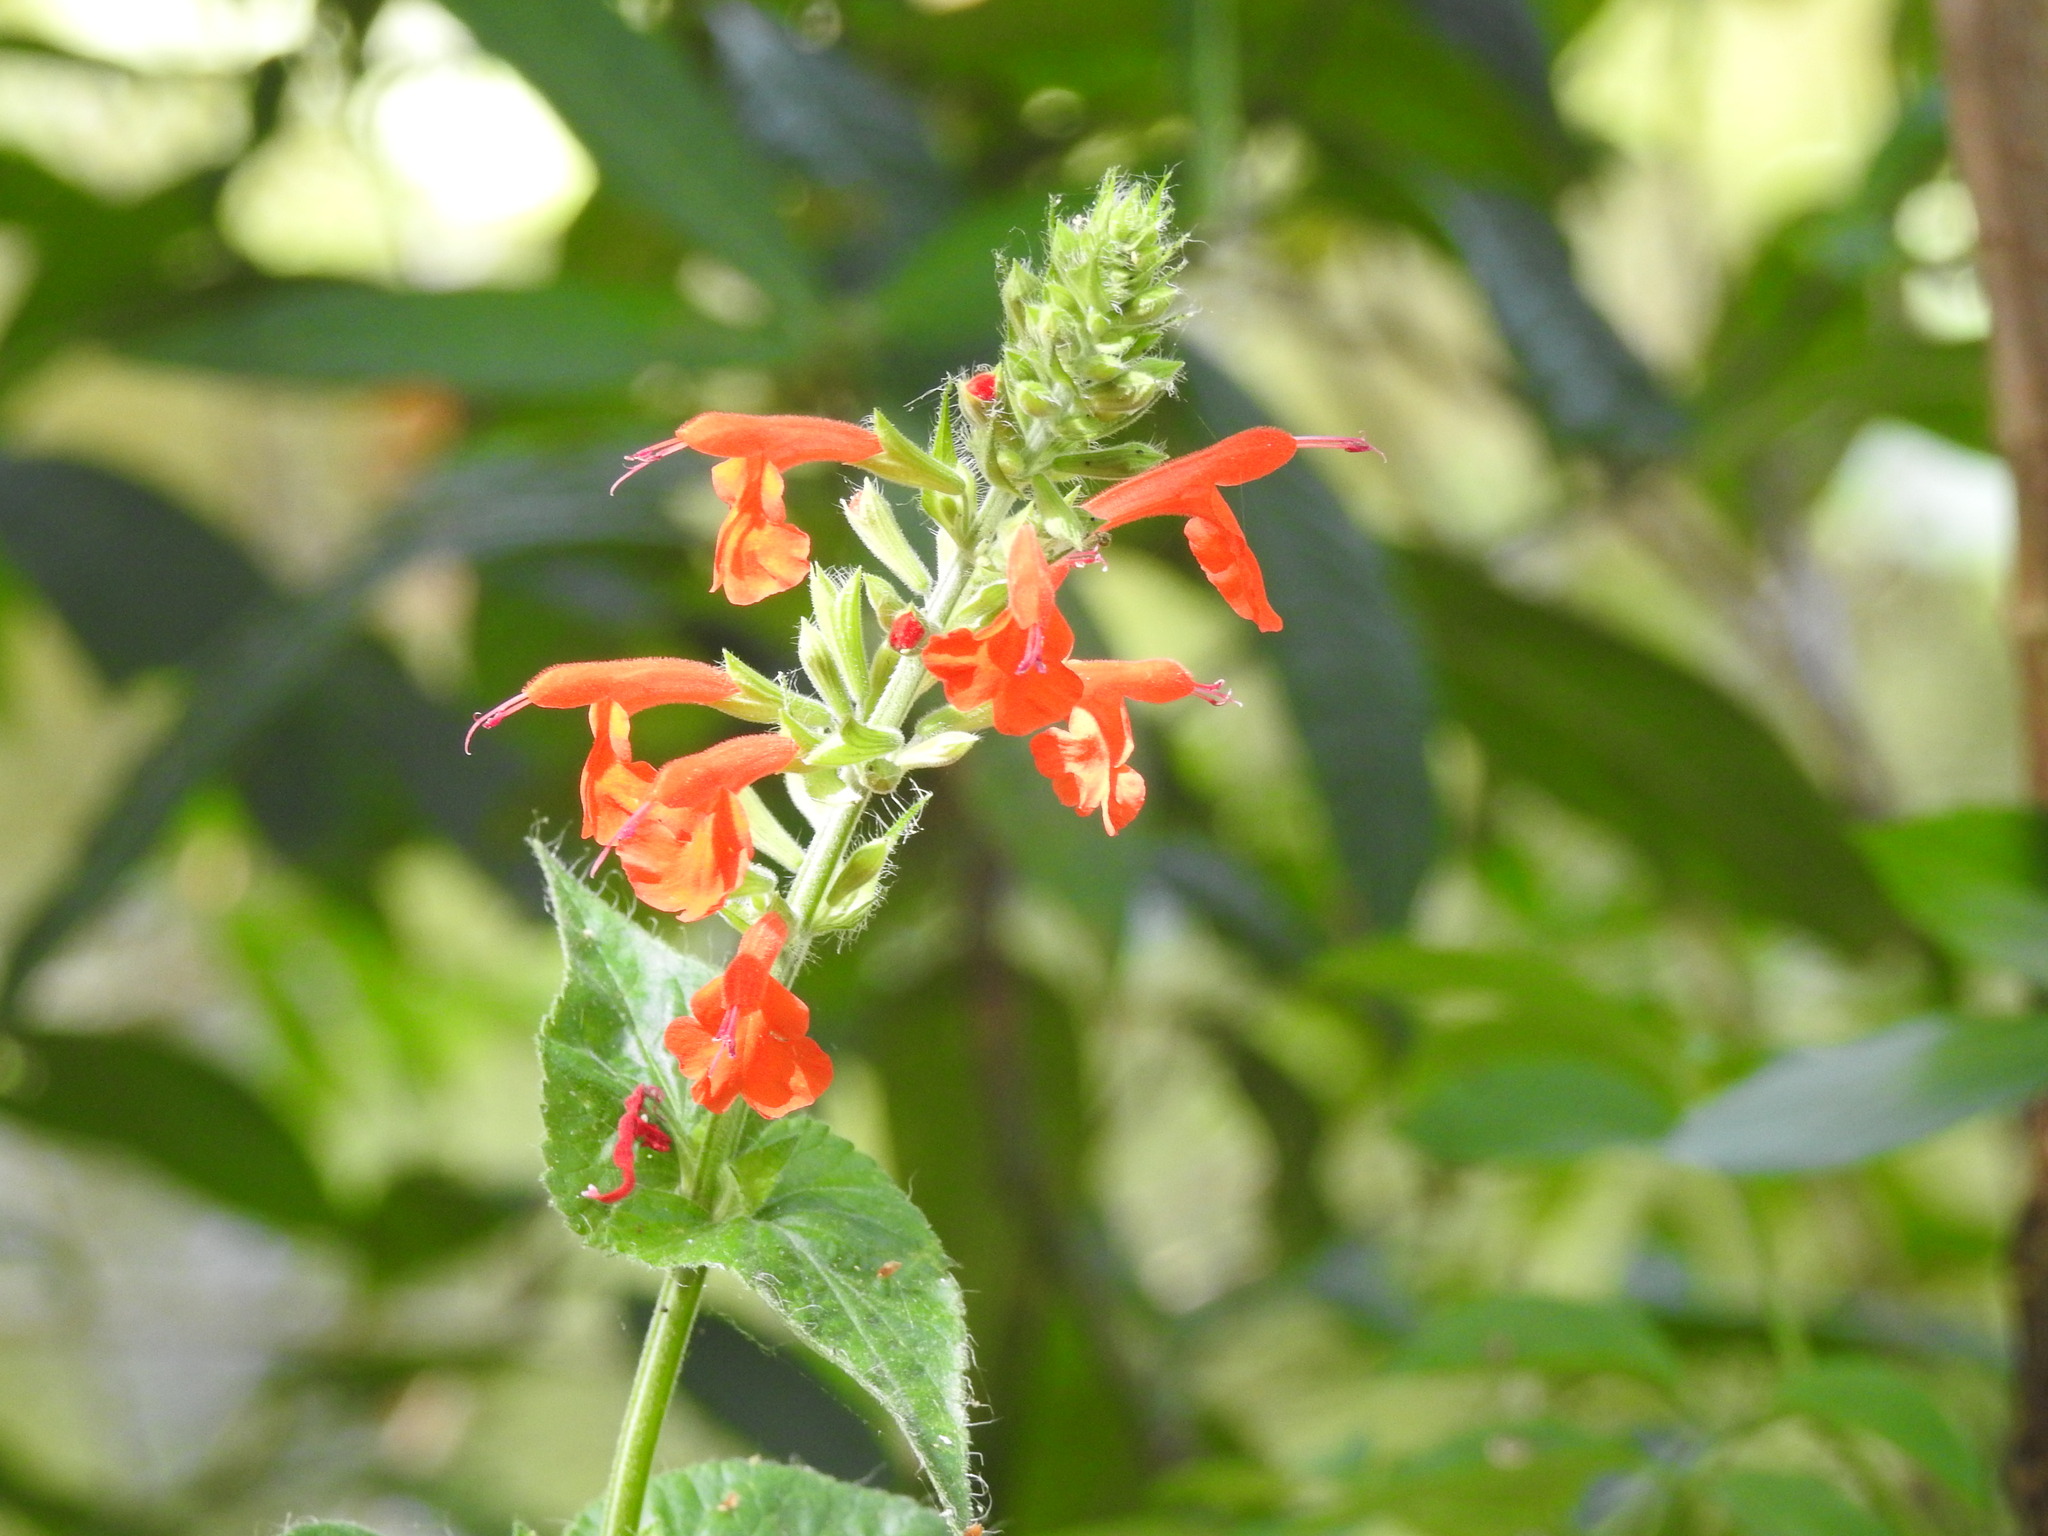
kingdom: Plantae
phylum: Tracheophyta
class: Magnoliopsida
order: Lamiales
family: Lamiaceae
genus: Salvia
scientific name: Salvia coccinea
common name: Blood sage
